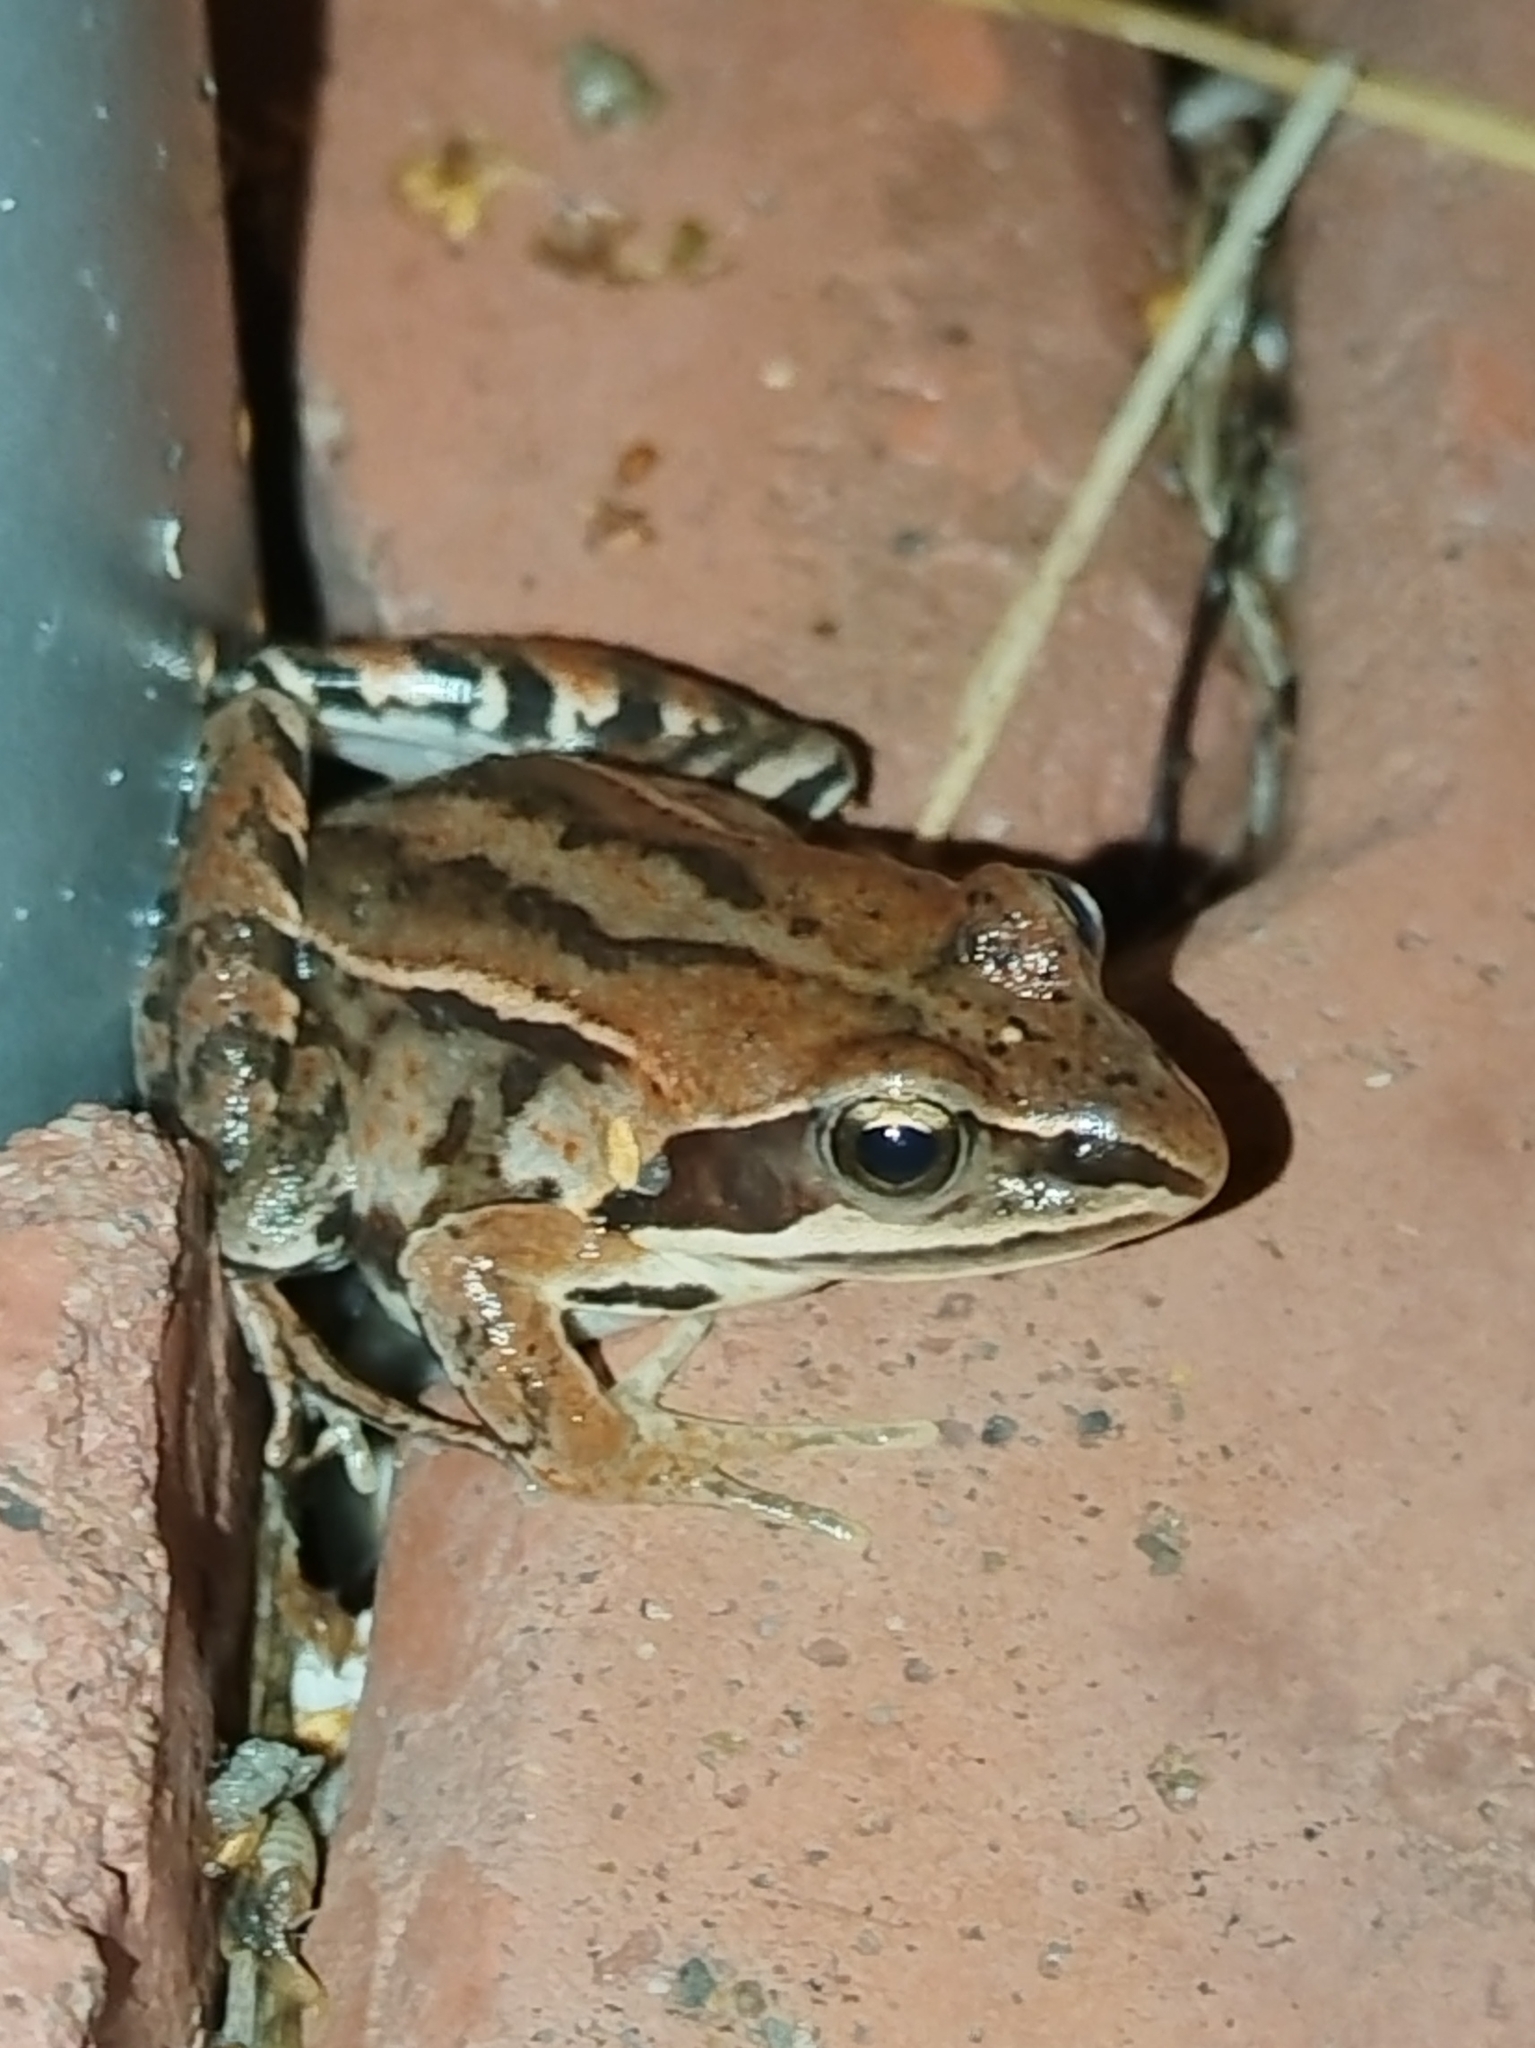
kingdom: Animalia
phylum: Chordata
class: Amphibia
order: Anura
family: Ranidae
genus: Rana
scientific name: Rana amurensis
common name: Amur brown frog
